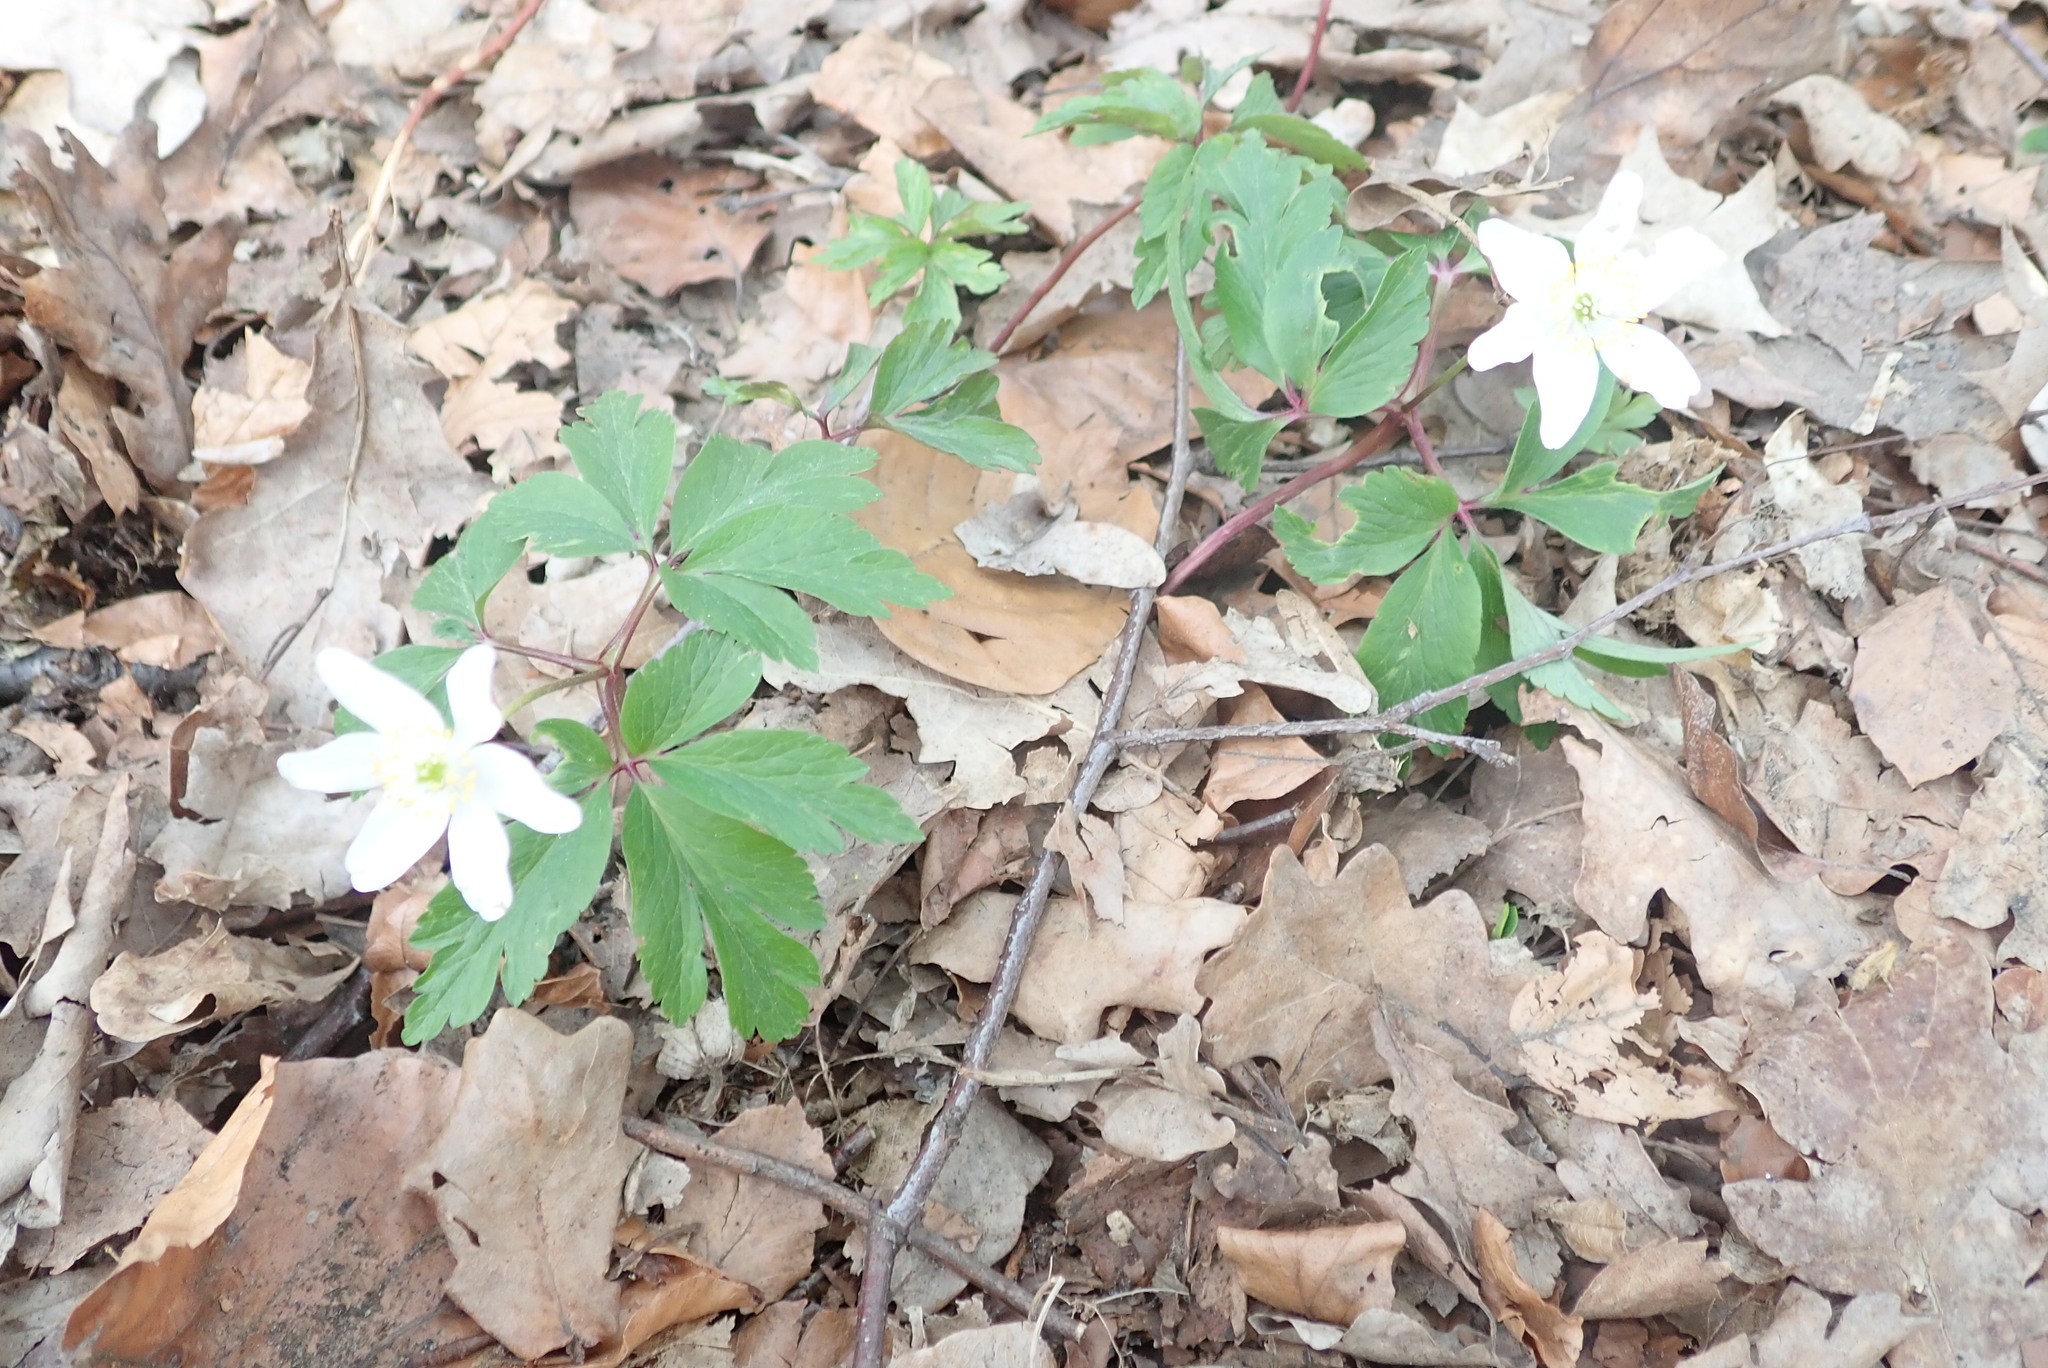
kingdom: Plantae
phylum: Tracheophyta
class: Magnoliopsida
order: Ranunculales
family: Ranunculaceae
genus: Anemone
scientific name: Anemone nemorosa
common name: Wood anemone
